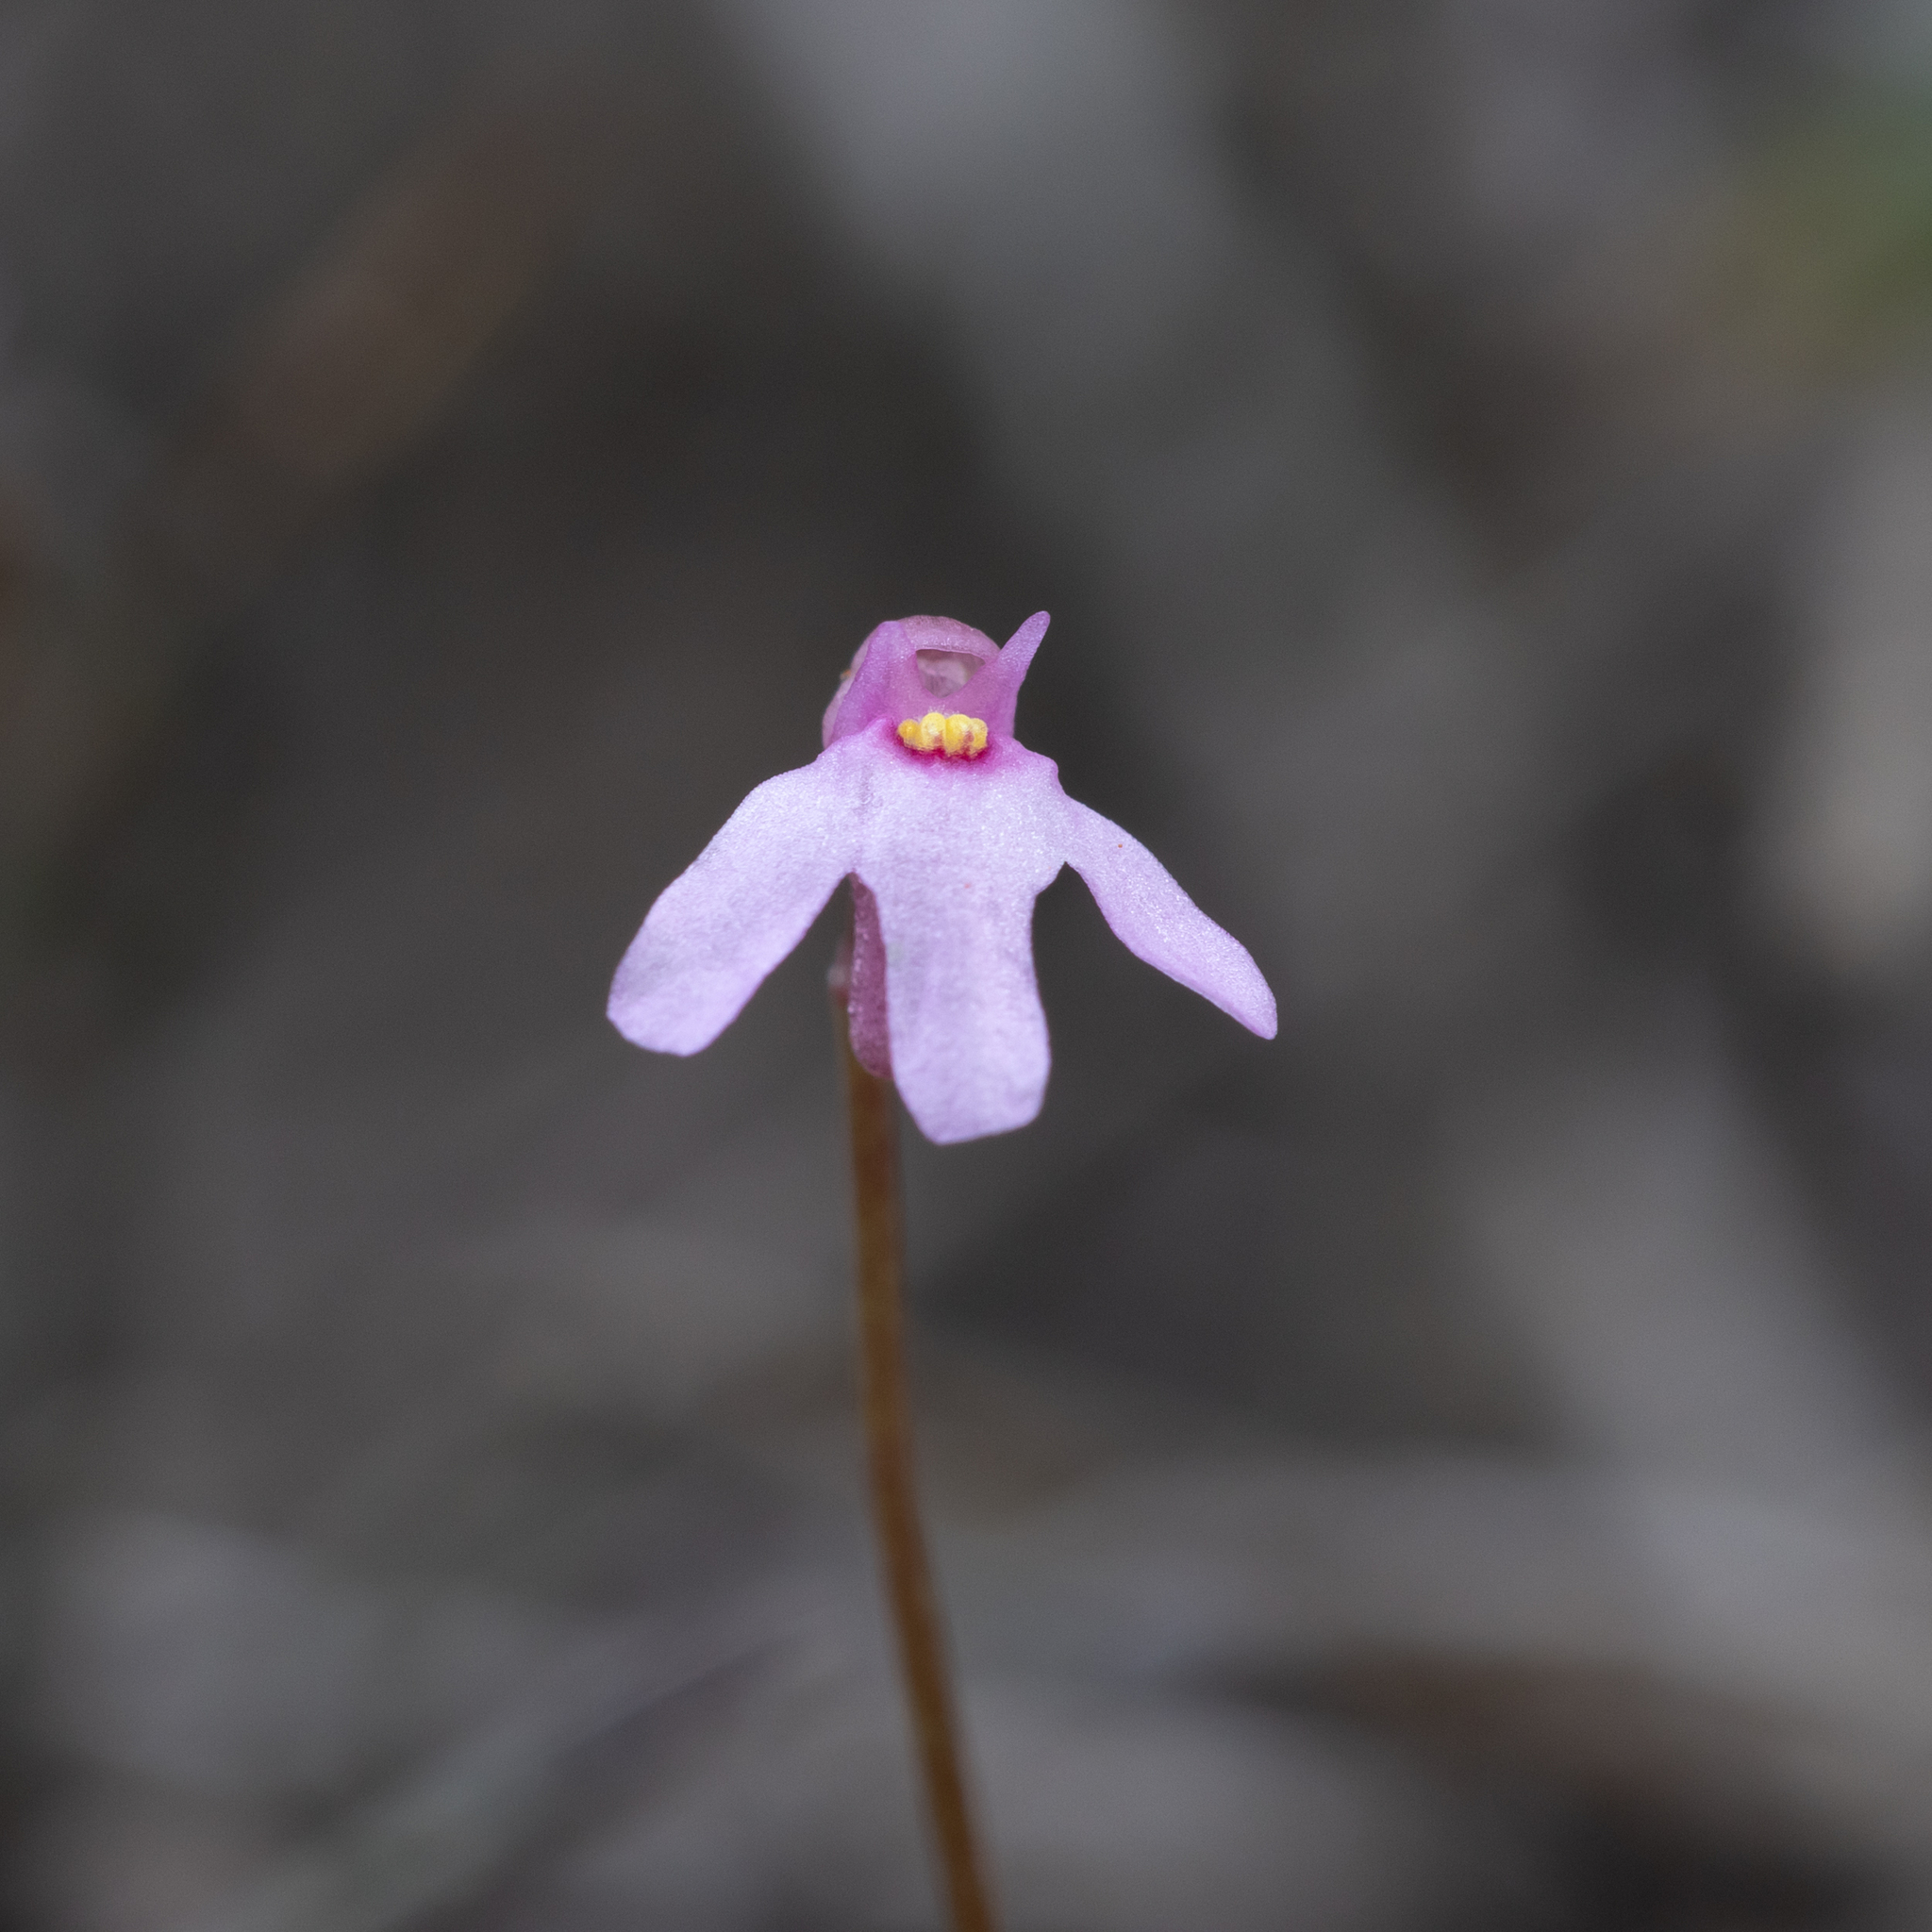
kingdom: Plantae
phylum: Tracheophyta
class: Magnoliopsida
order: Lamiales
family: Lentibulariaceae
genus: Utricularia
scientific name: Utricularia tenella
